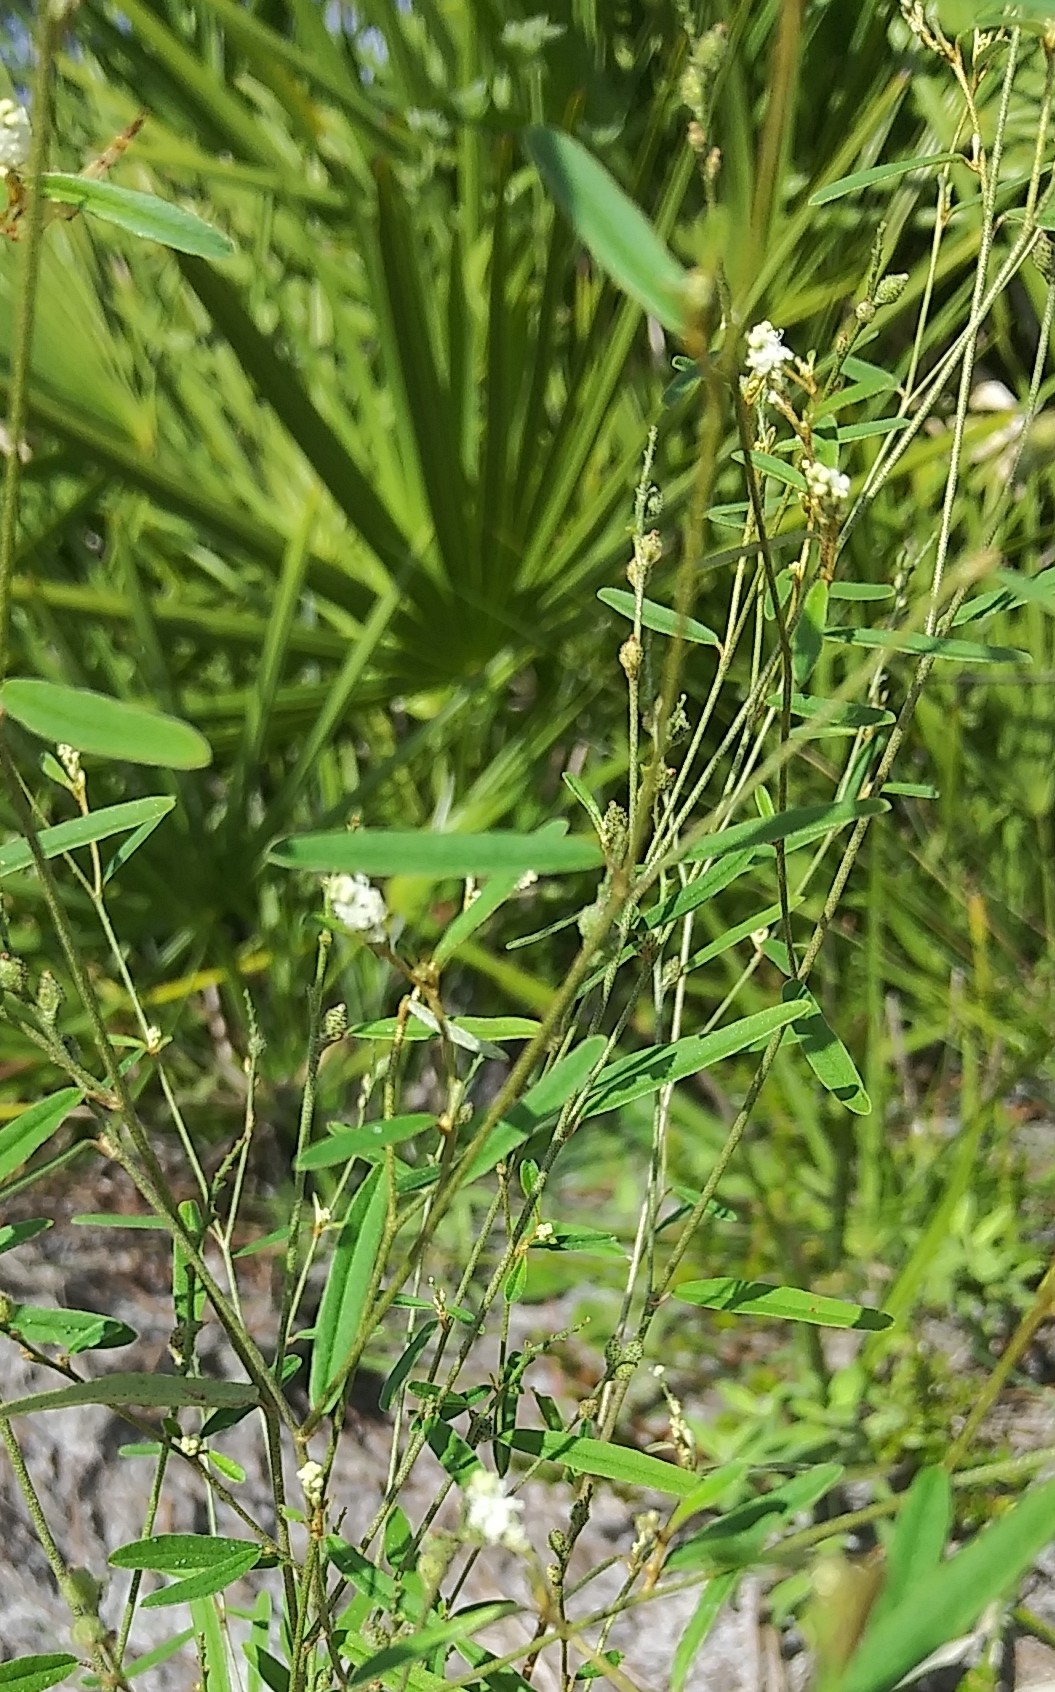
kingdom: Plantae
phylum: Tracheophyta
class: Magnoliopsida
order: Malpighiales
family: Euphorbiaceae
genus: Croton
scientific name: Croton michauxii
